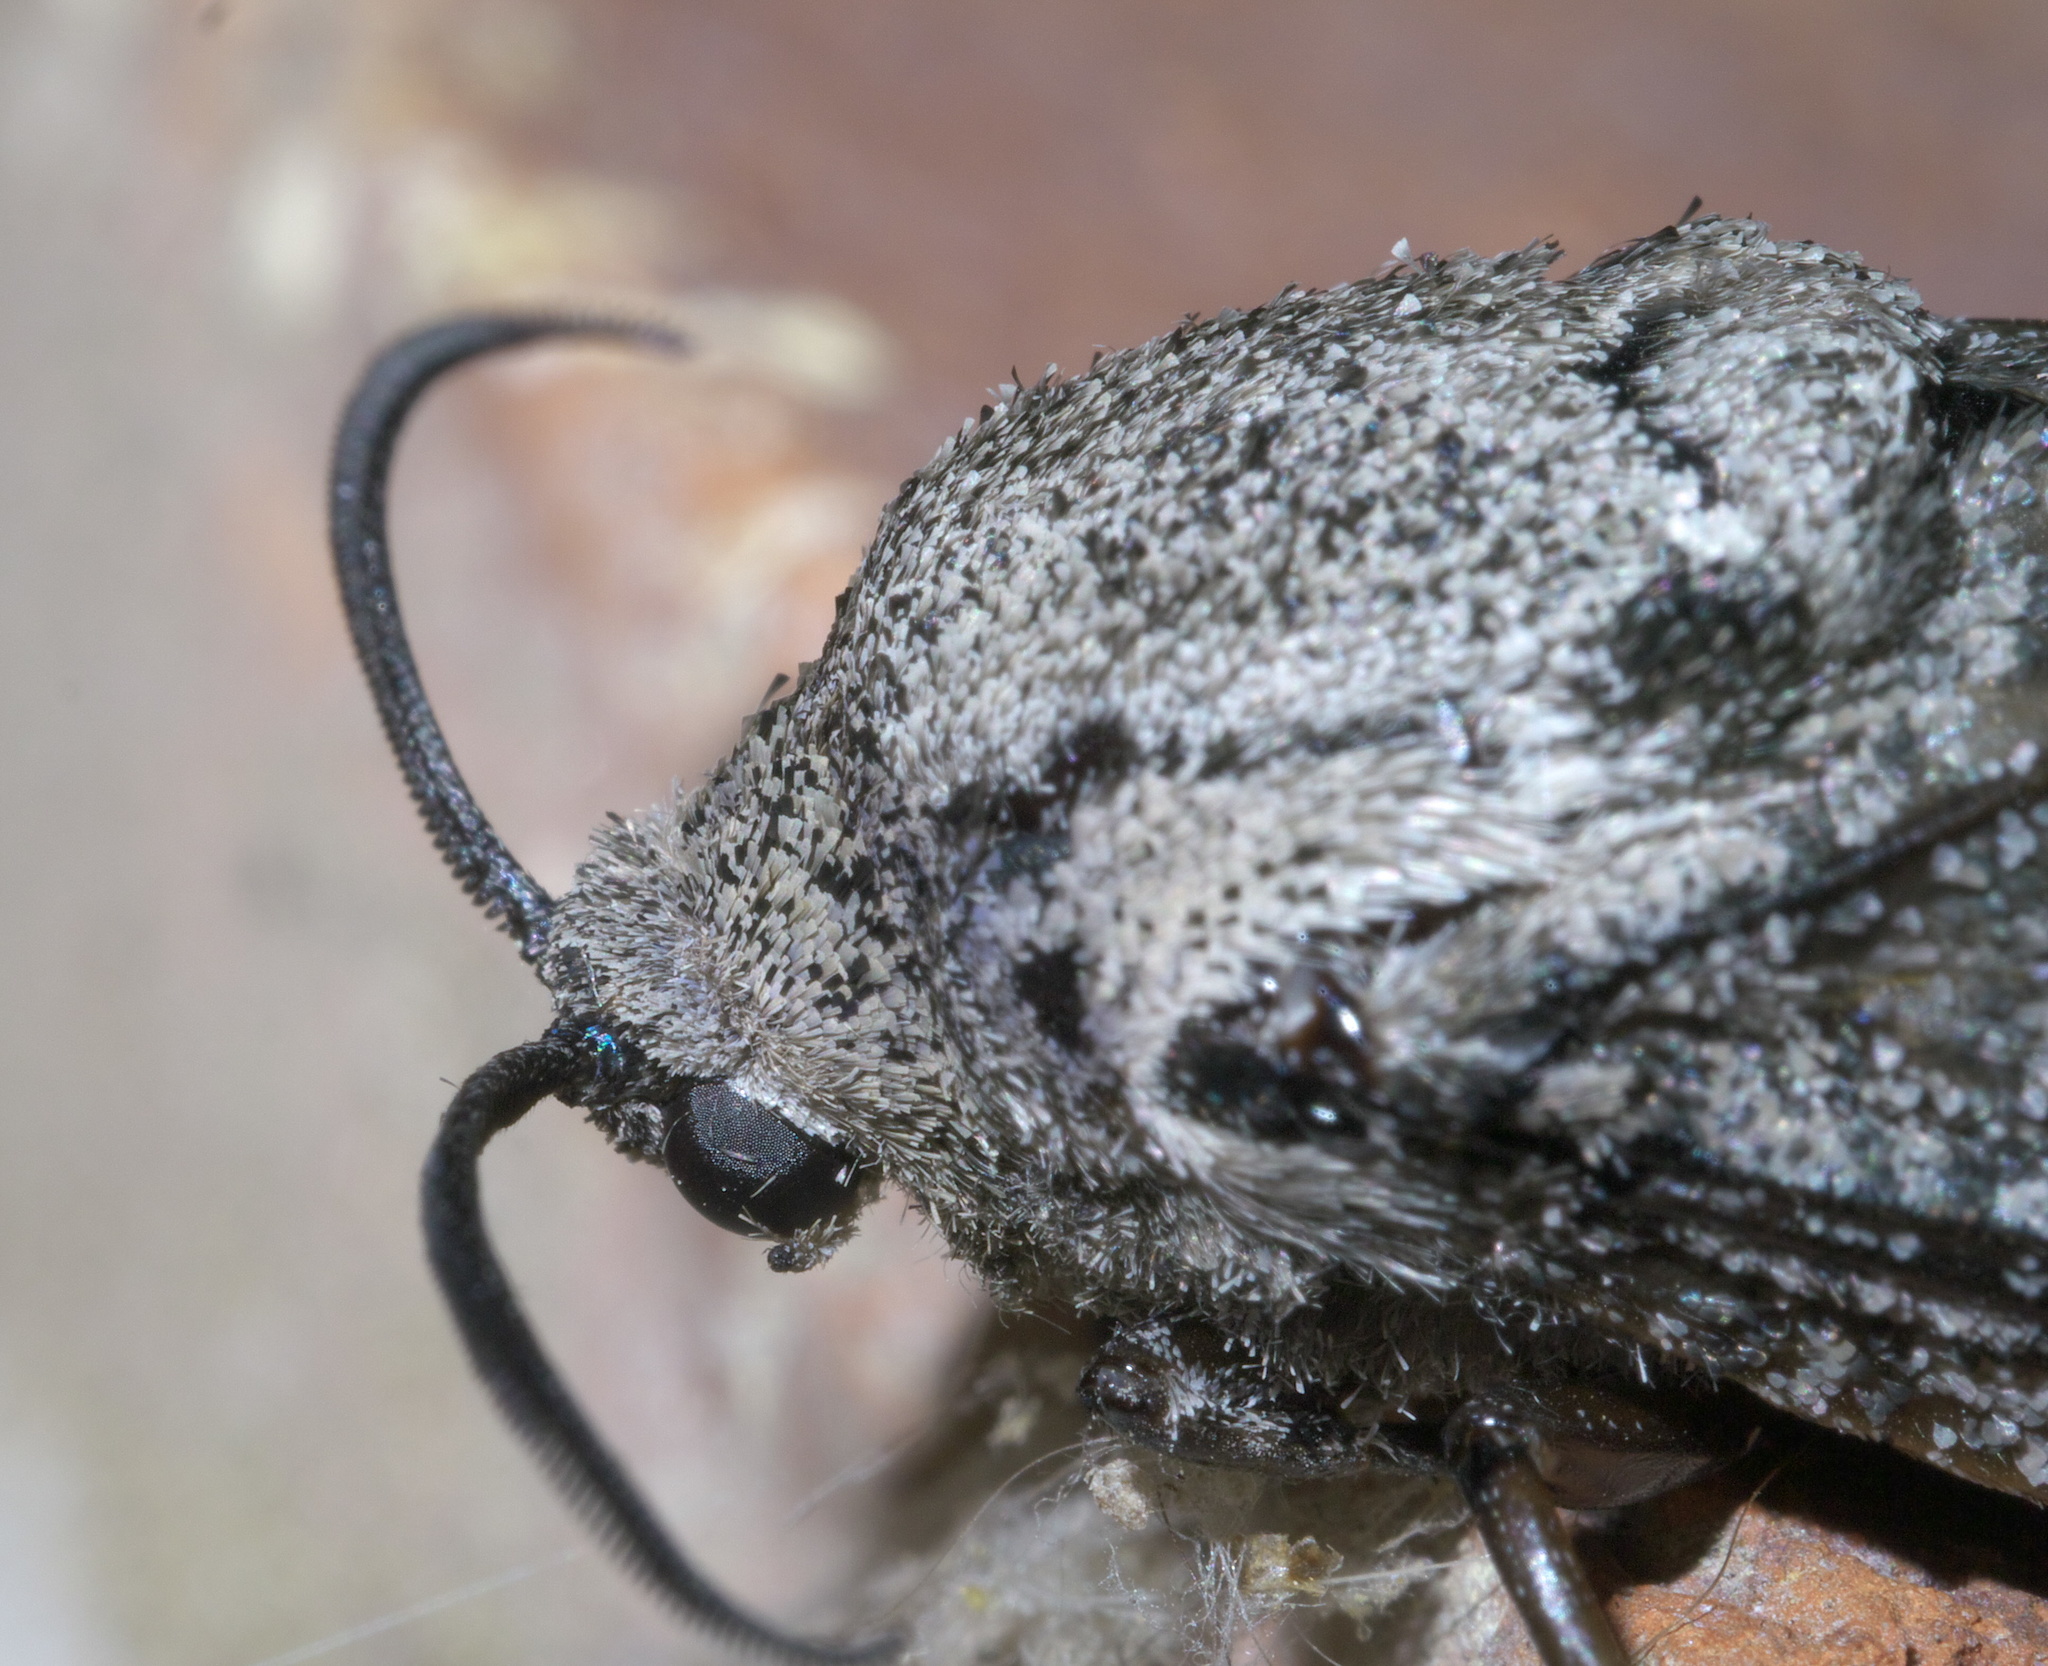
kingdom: Animalia
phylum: Arthropoda
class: Insecta
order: Lepidoptera
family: Cossidae
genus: Prionoxystus
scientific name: Prionoxystus robiniae
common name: Carpenterworm
